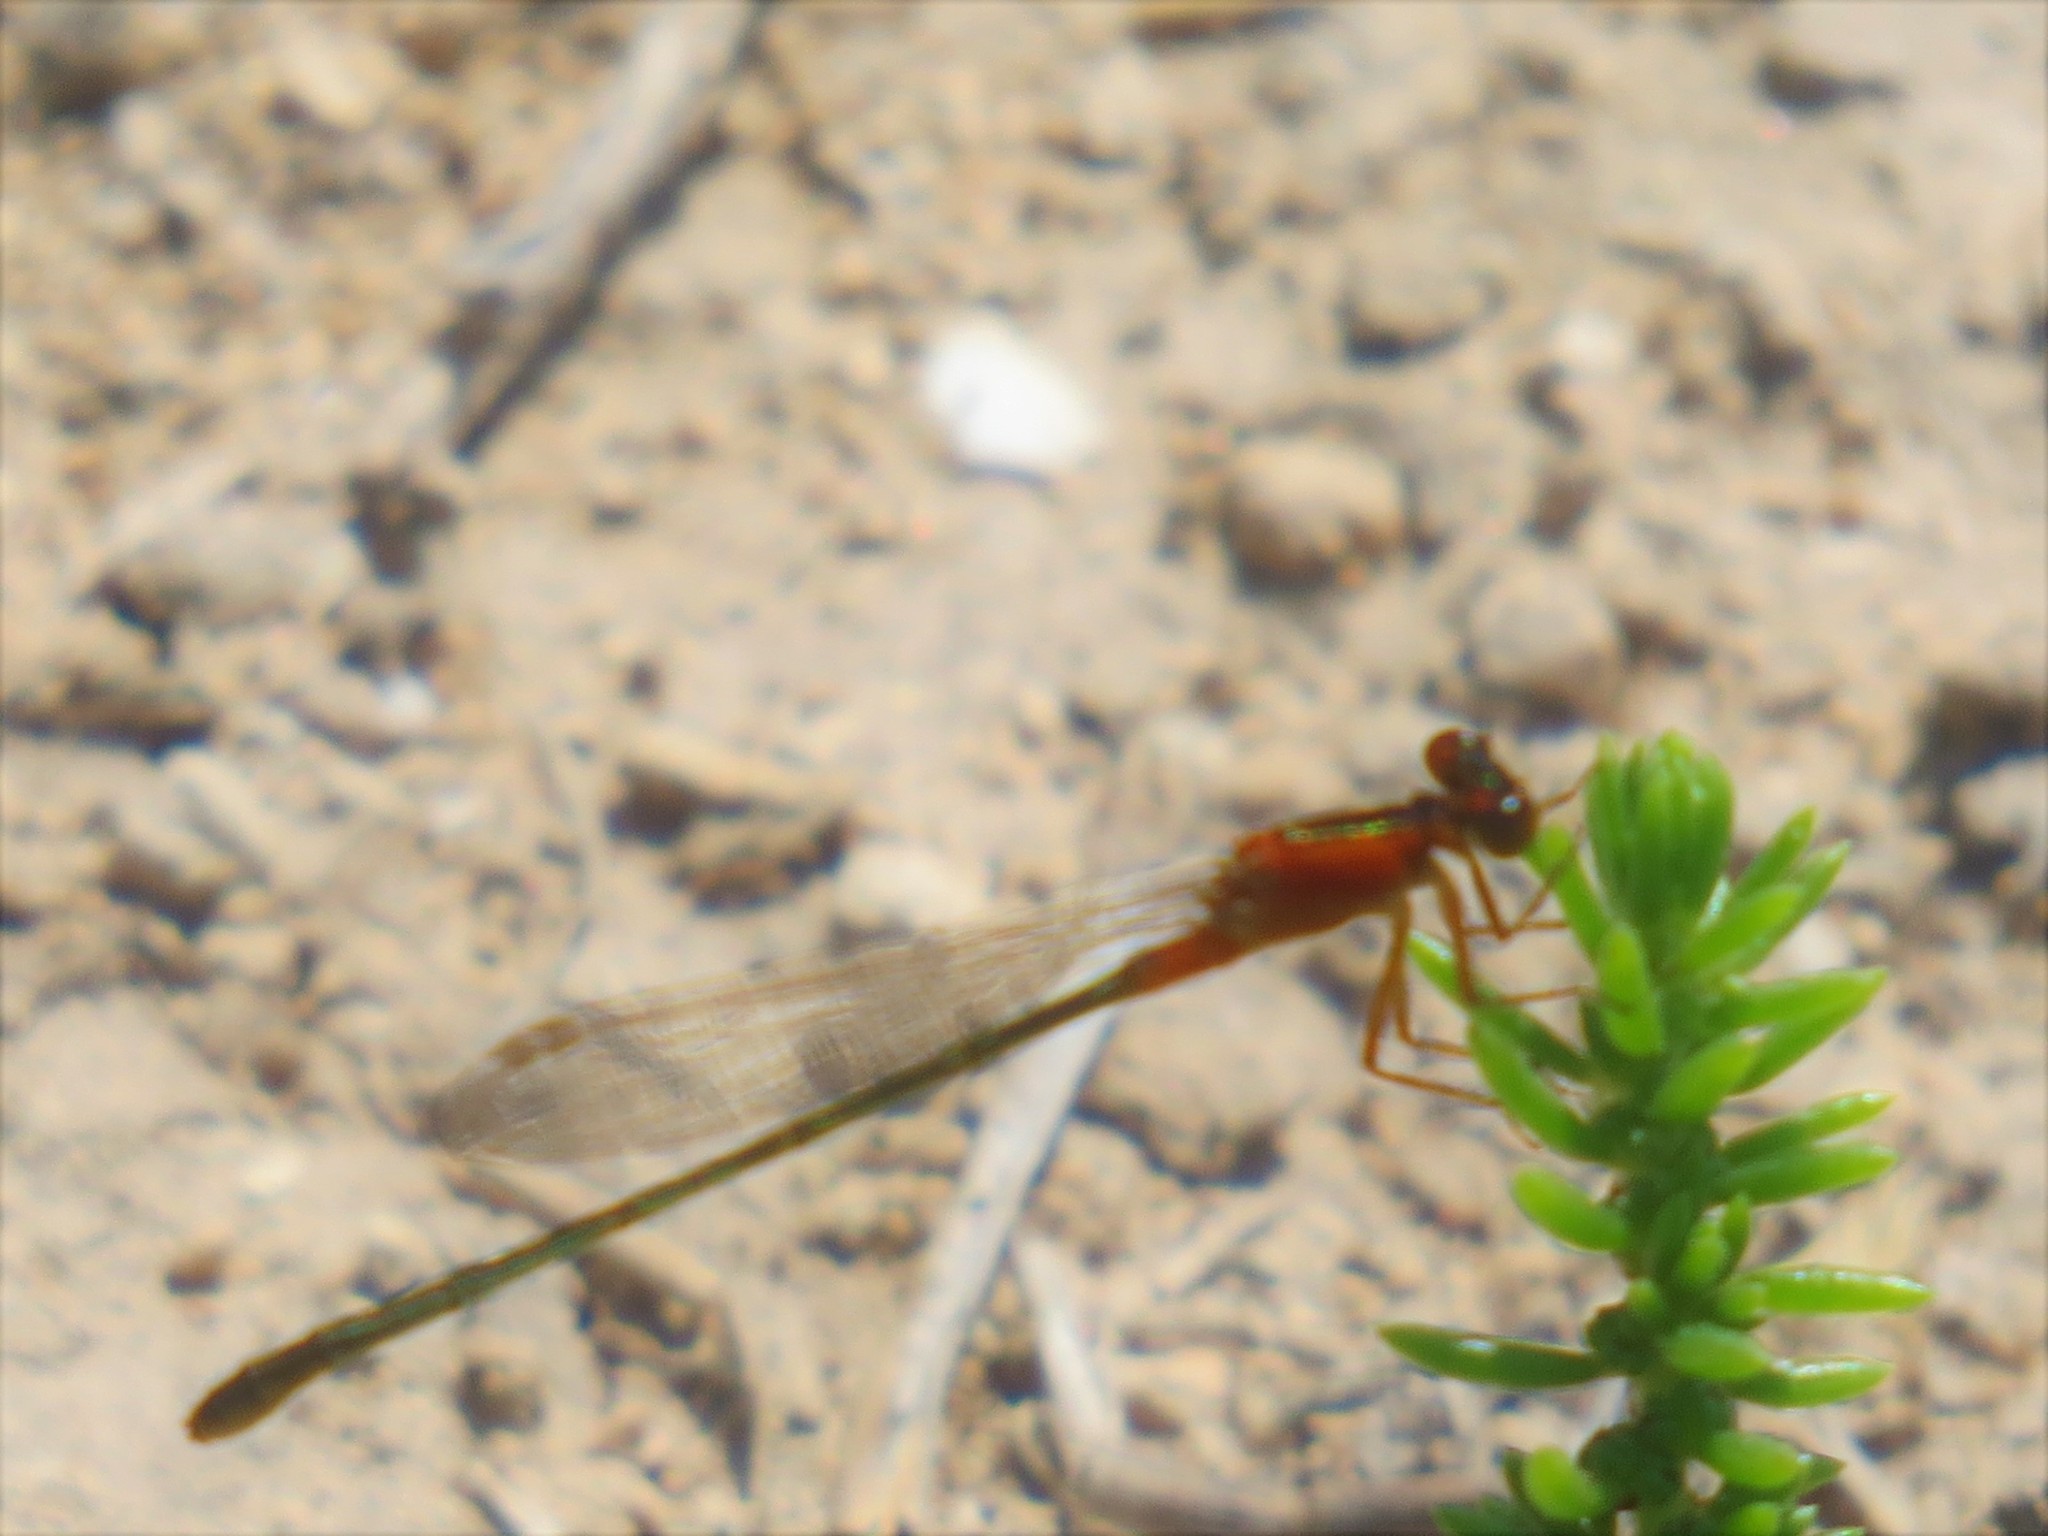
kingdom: Animalia
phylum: Arthropoda
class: Insecta
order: Odonata
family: Coenagrionidae
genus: Ischnura
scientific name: Ischnura ramburii
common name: Rambur's forktail
